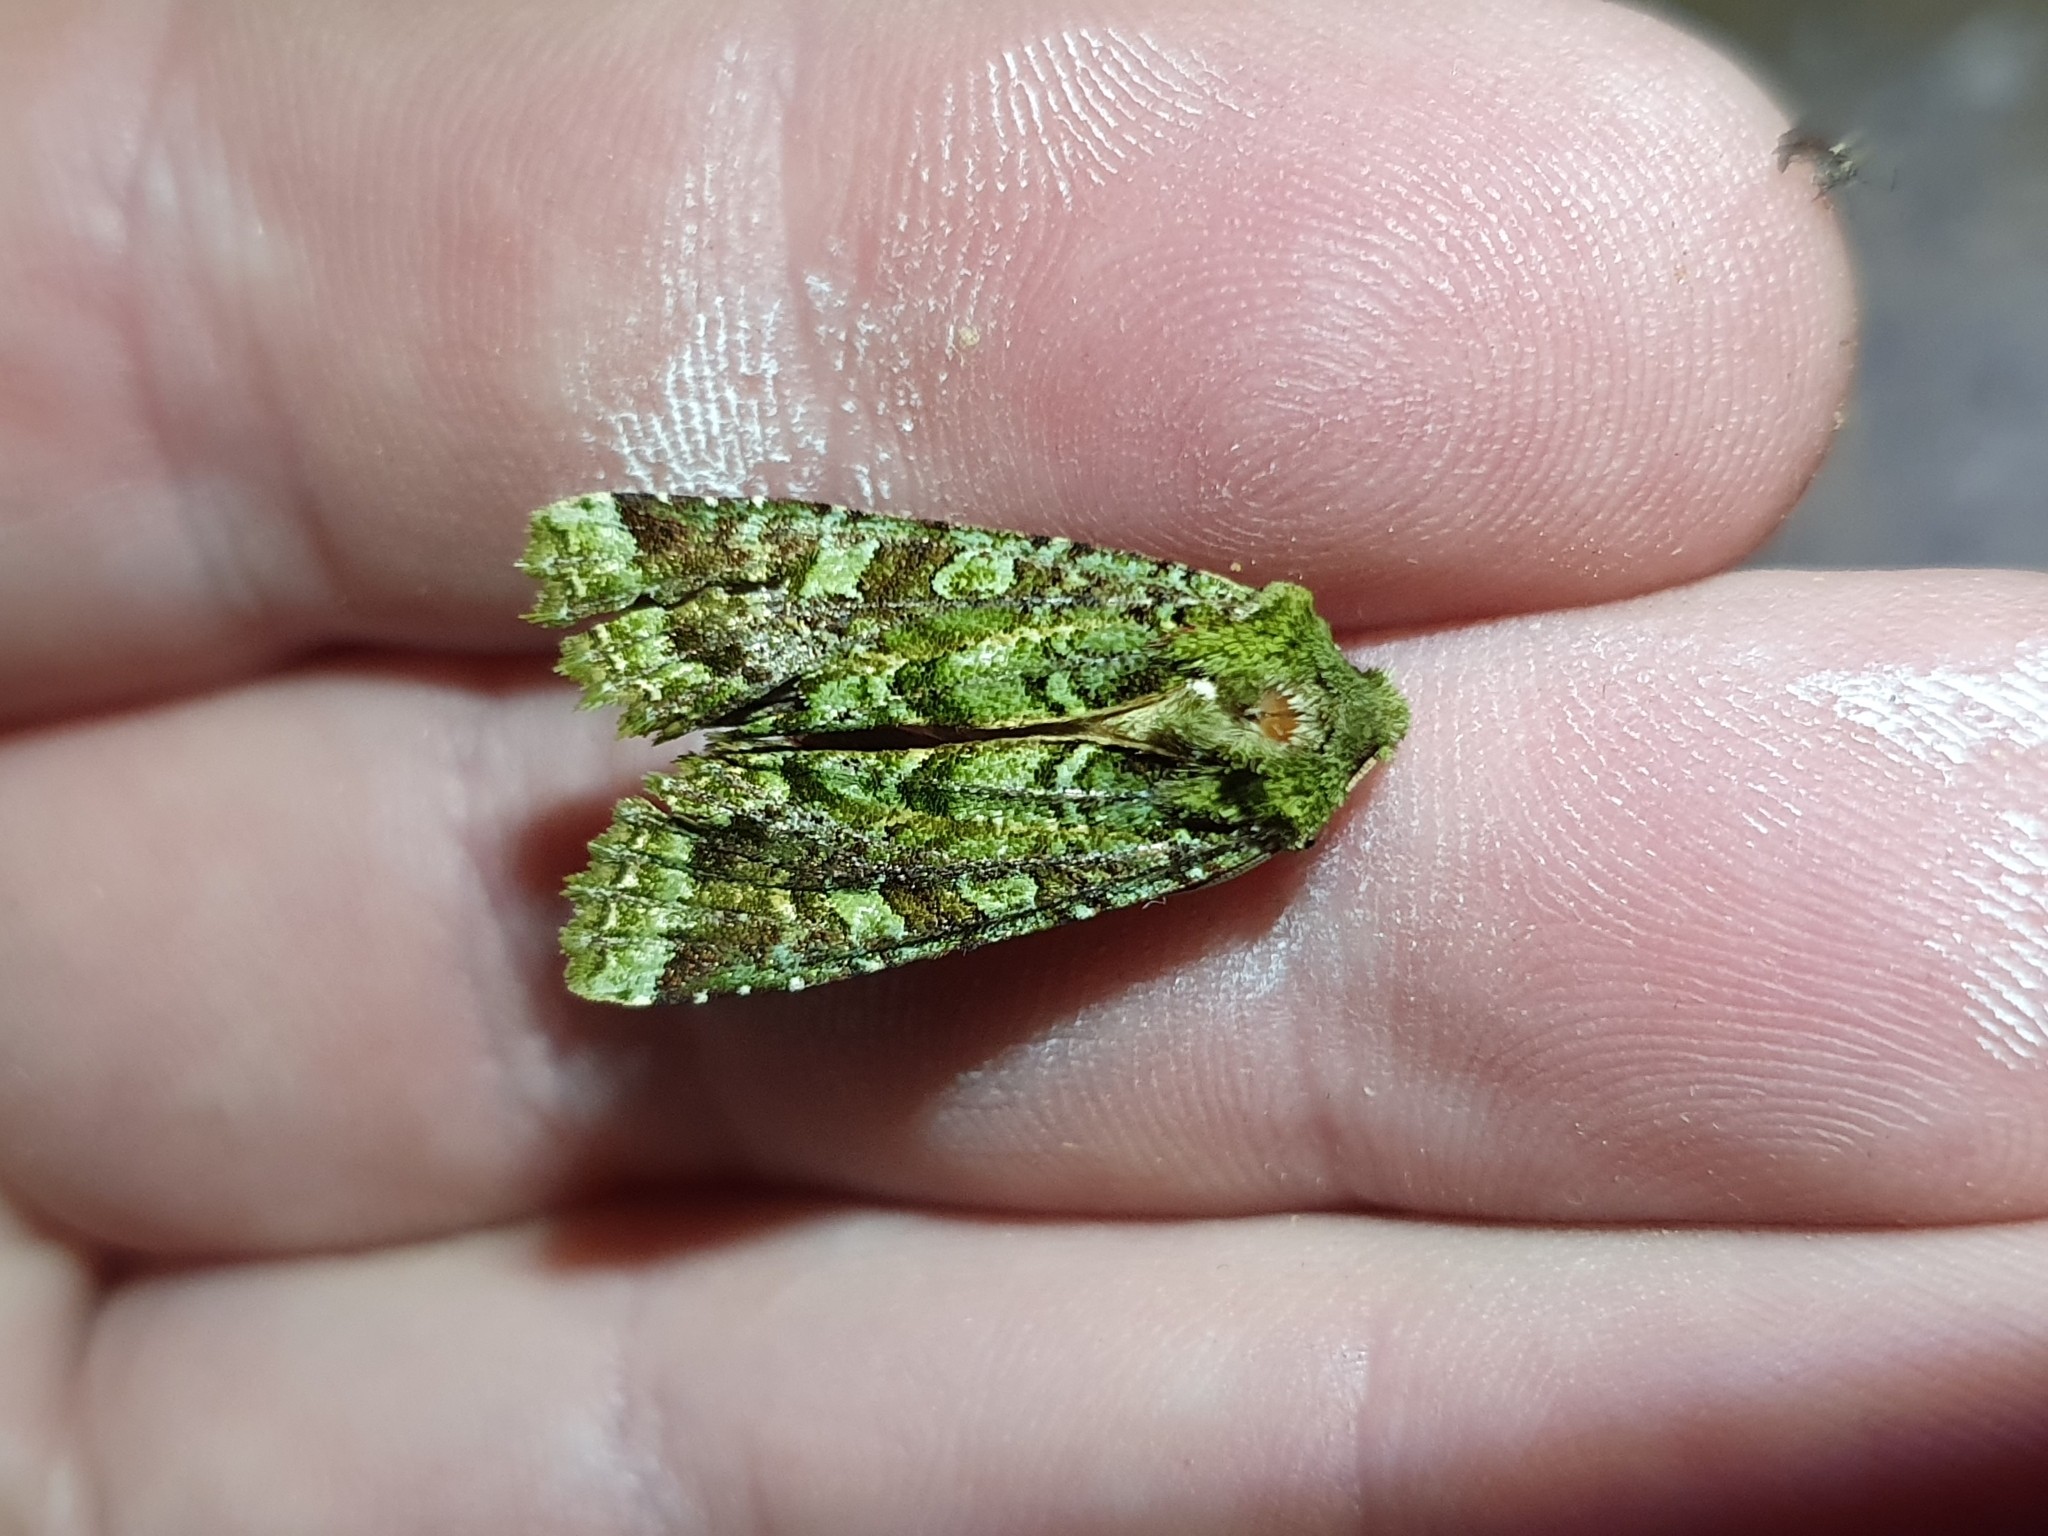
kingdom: Animalia
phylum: Arthropoda
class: Insecta
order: Lepidoptera
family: Noctuidae
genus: Feredayia
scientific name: Feredayia grammosa
